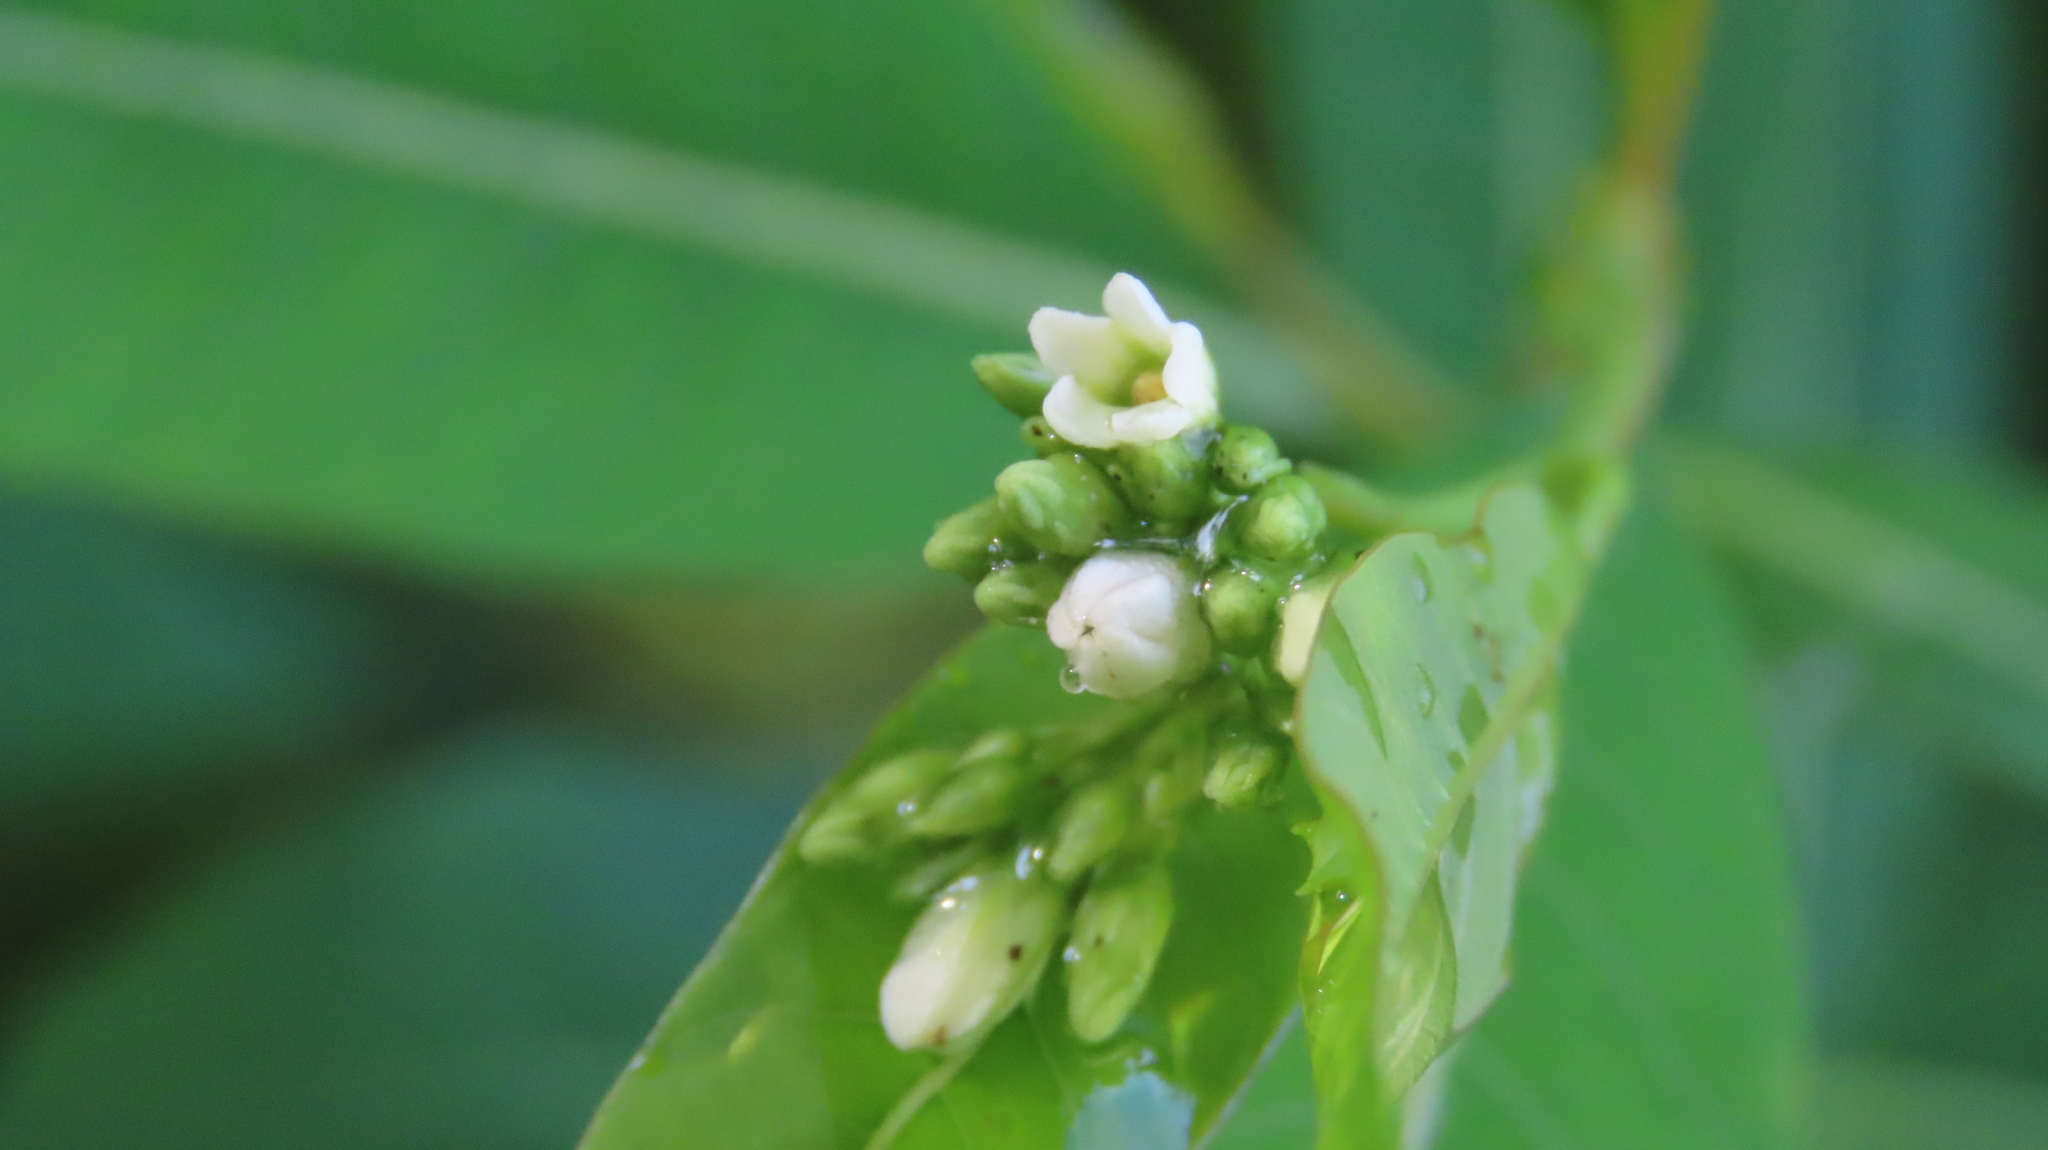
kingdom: Plantae
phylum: Tracheophyta
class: Magnoliopsida
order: Gentianales
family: Apocynaceae
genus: Apocynum
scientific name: Apocynum cannabinum
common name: Hemp dogbane
